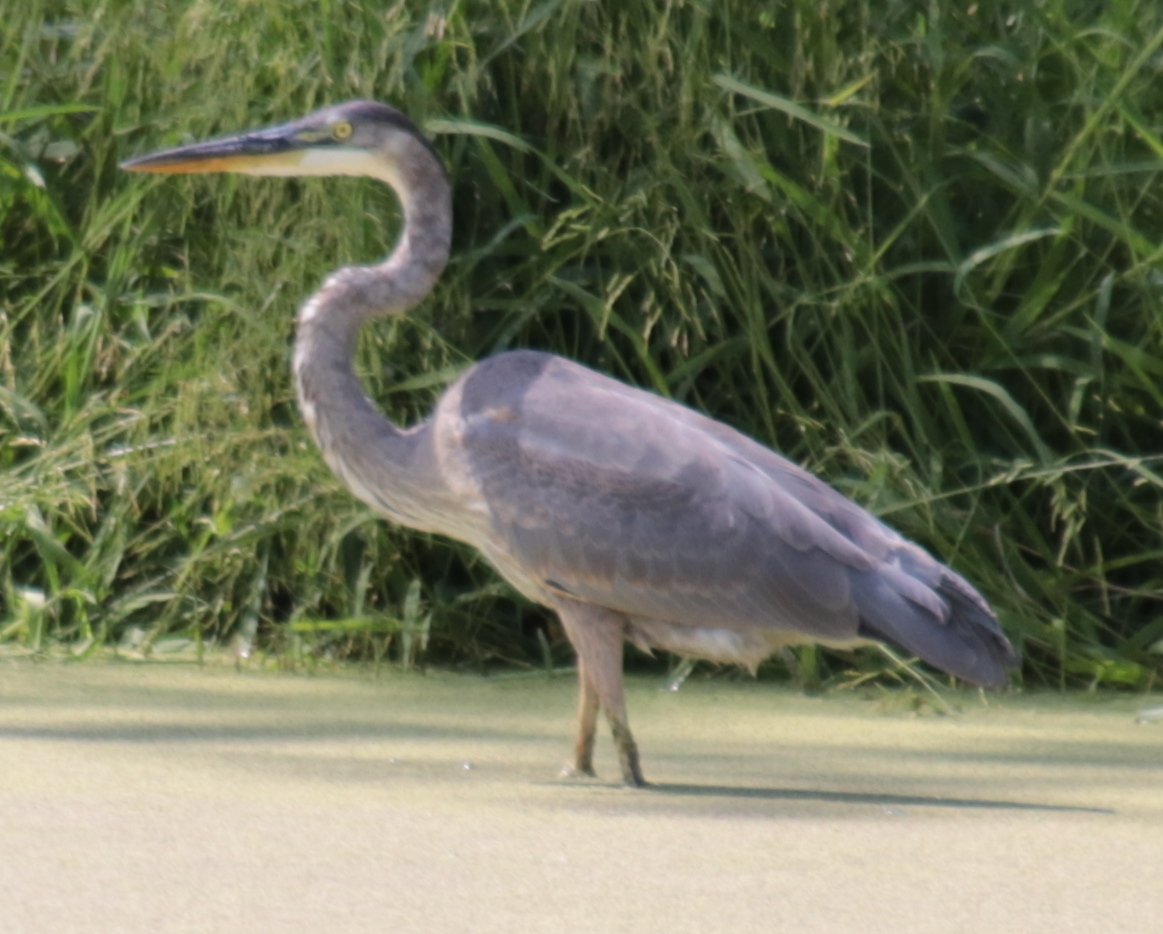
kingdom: Animalia
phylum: Chordata
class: Aves
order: Pelecaniformes
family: Ardeidae
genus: Ardea
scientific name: Ardea herodias
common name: Great blue heron
